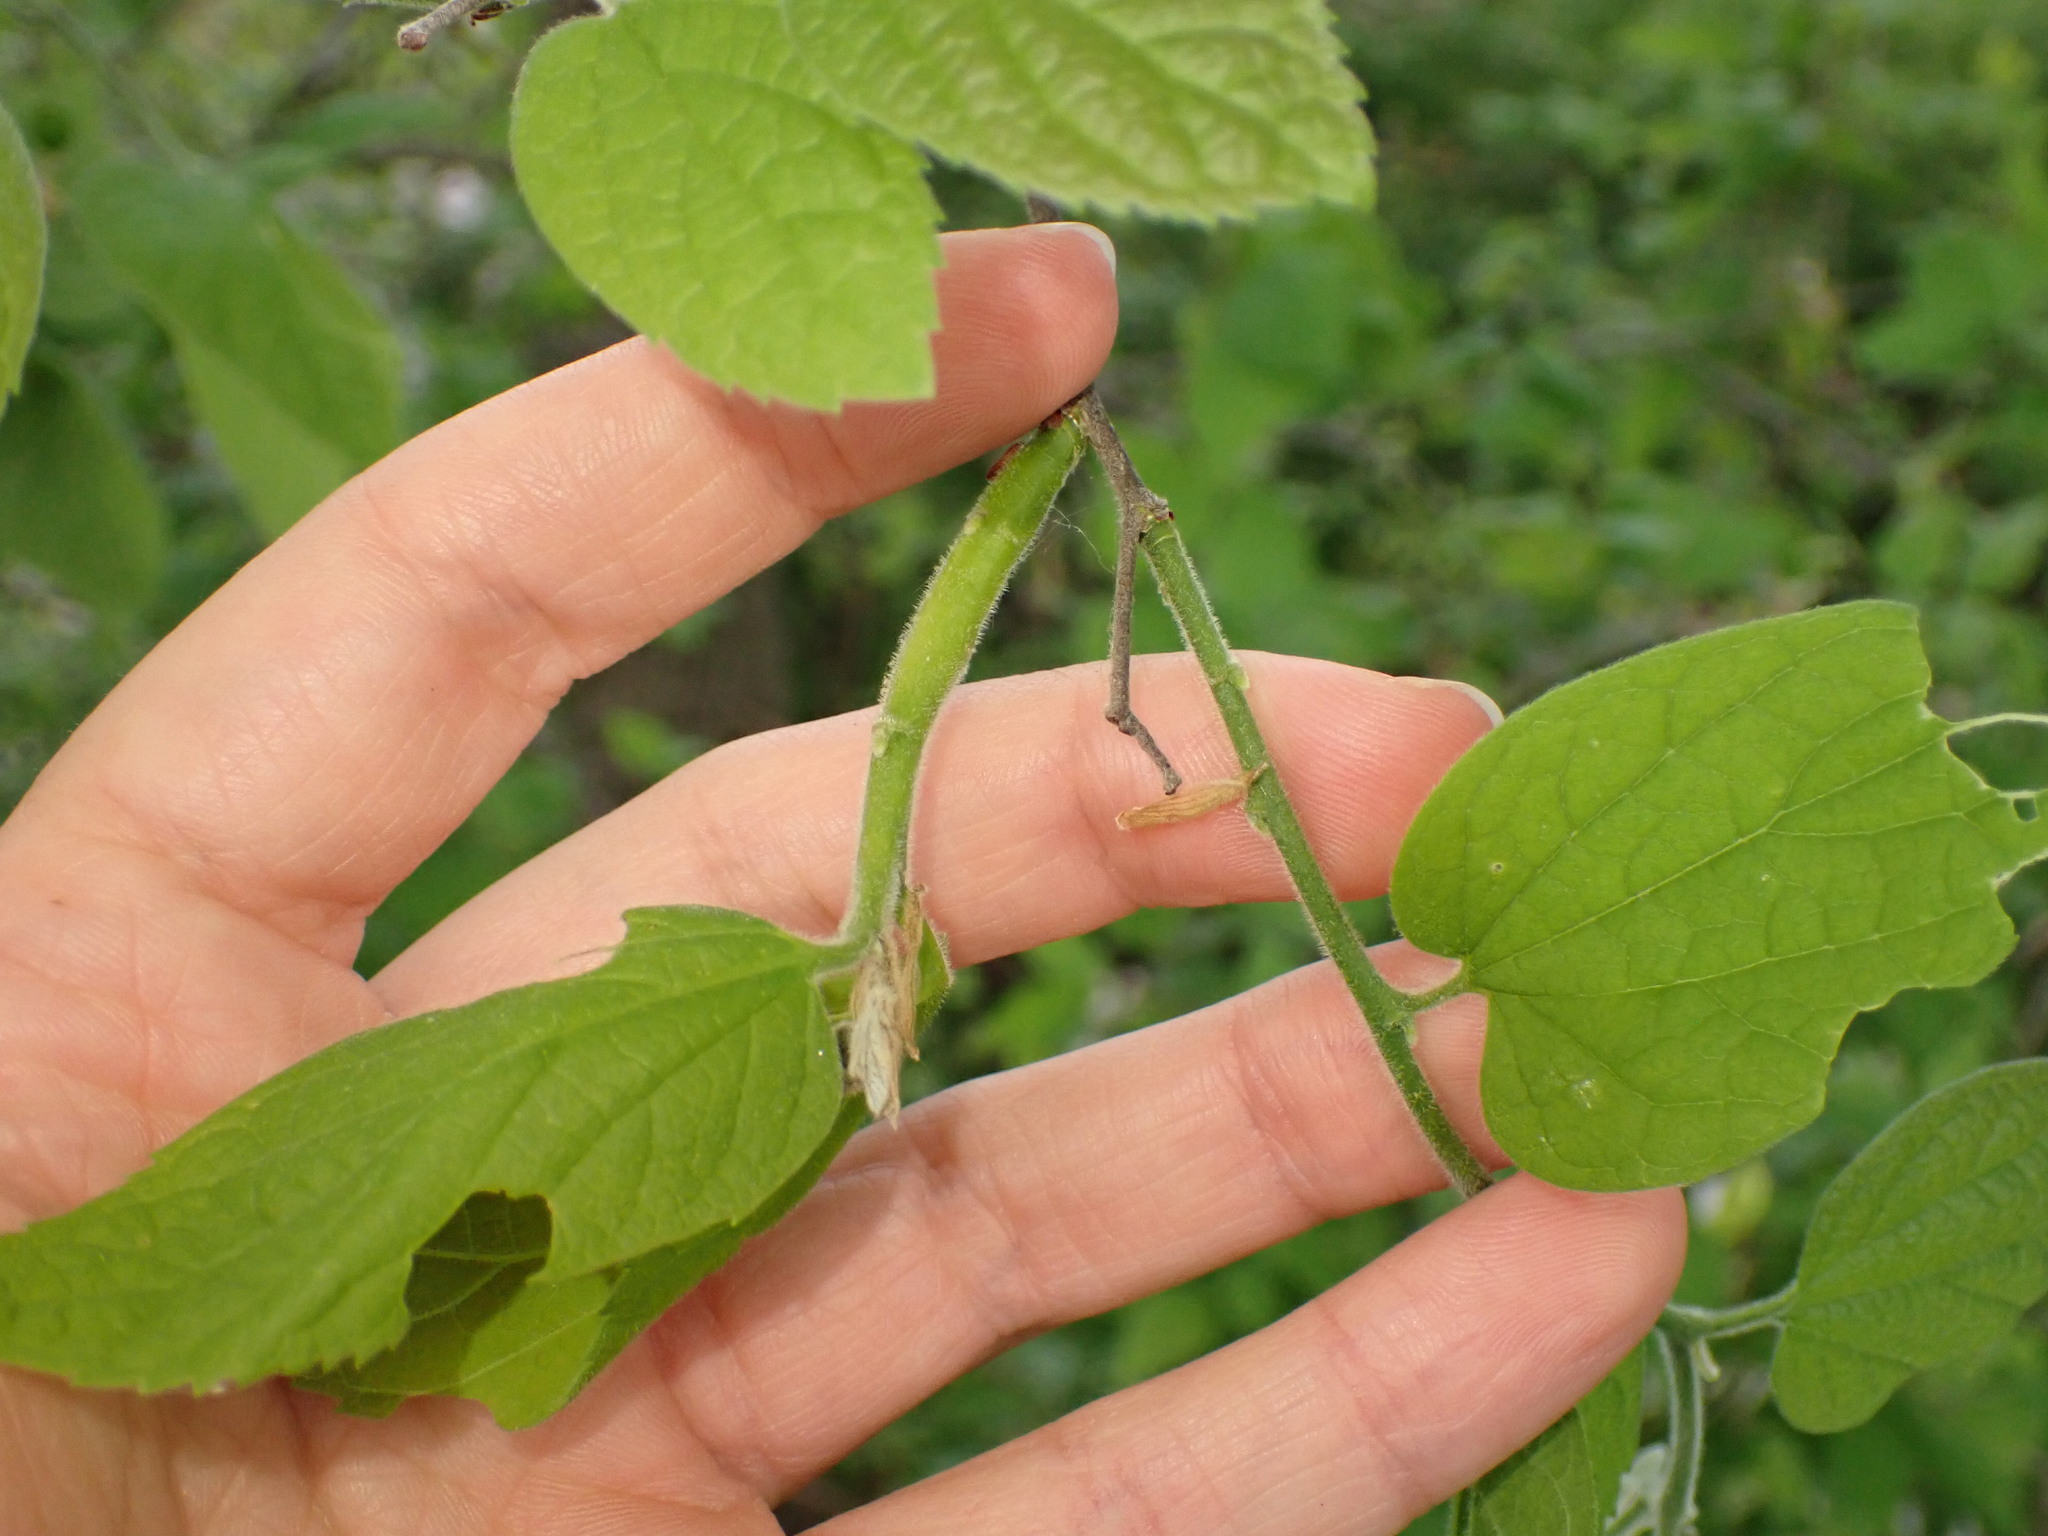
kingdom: Animalia
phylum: Arthropoda
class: Insecta
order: Diptera
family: Agromyzidae
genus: Agromyza
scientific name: Agromyza deserta
